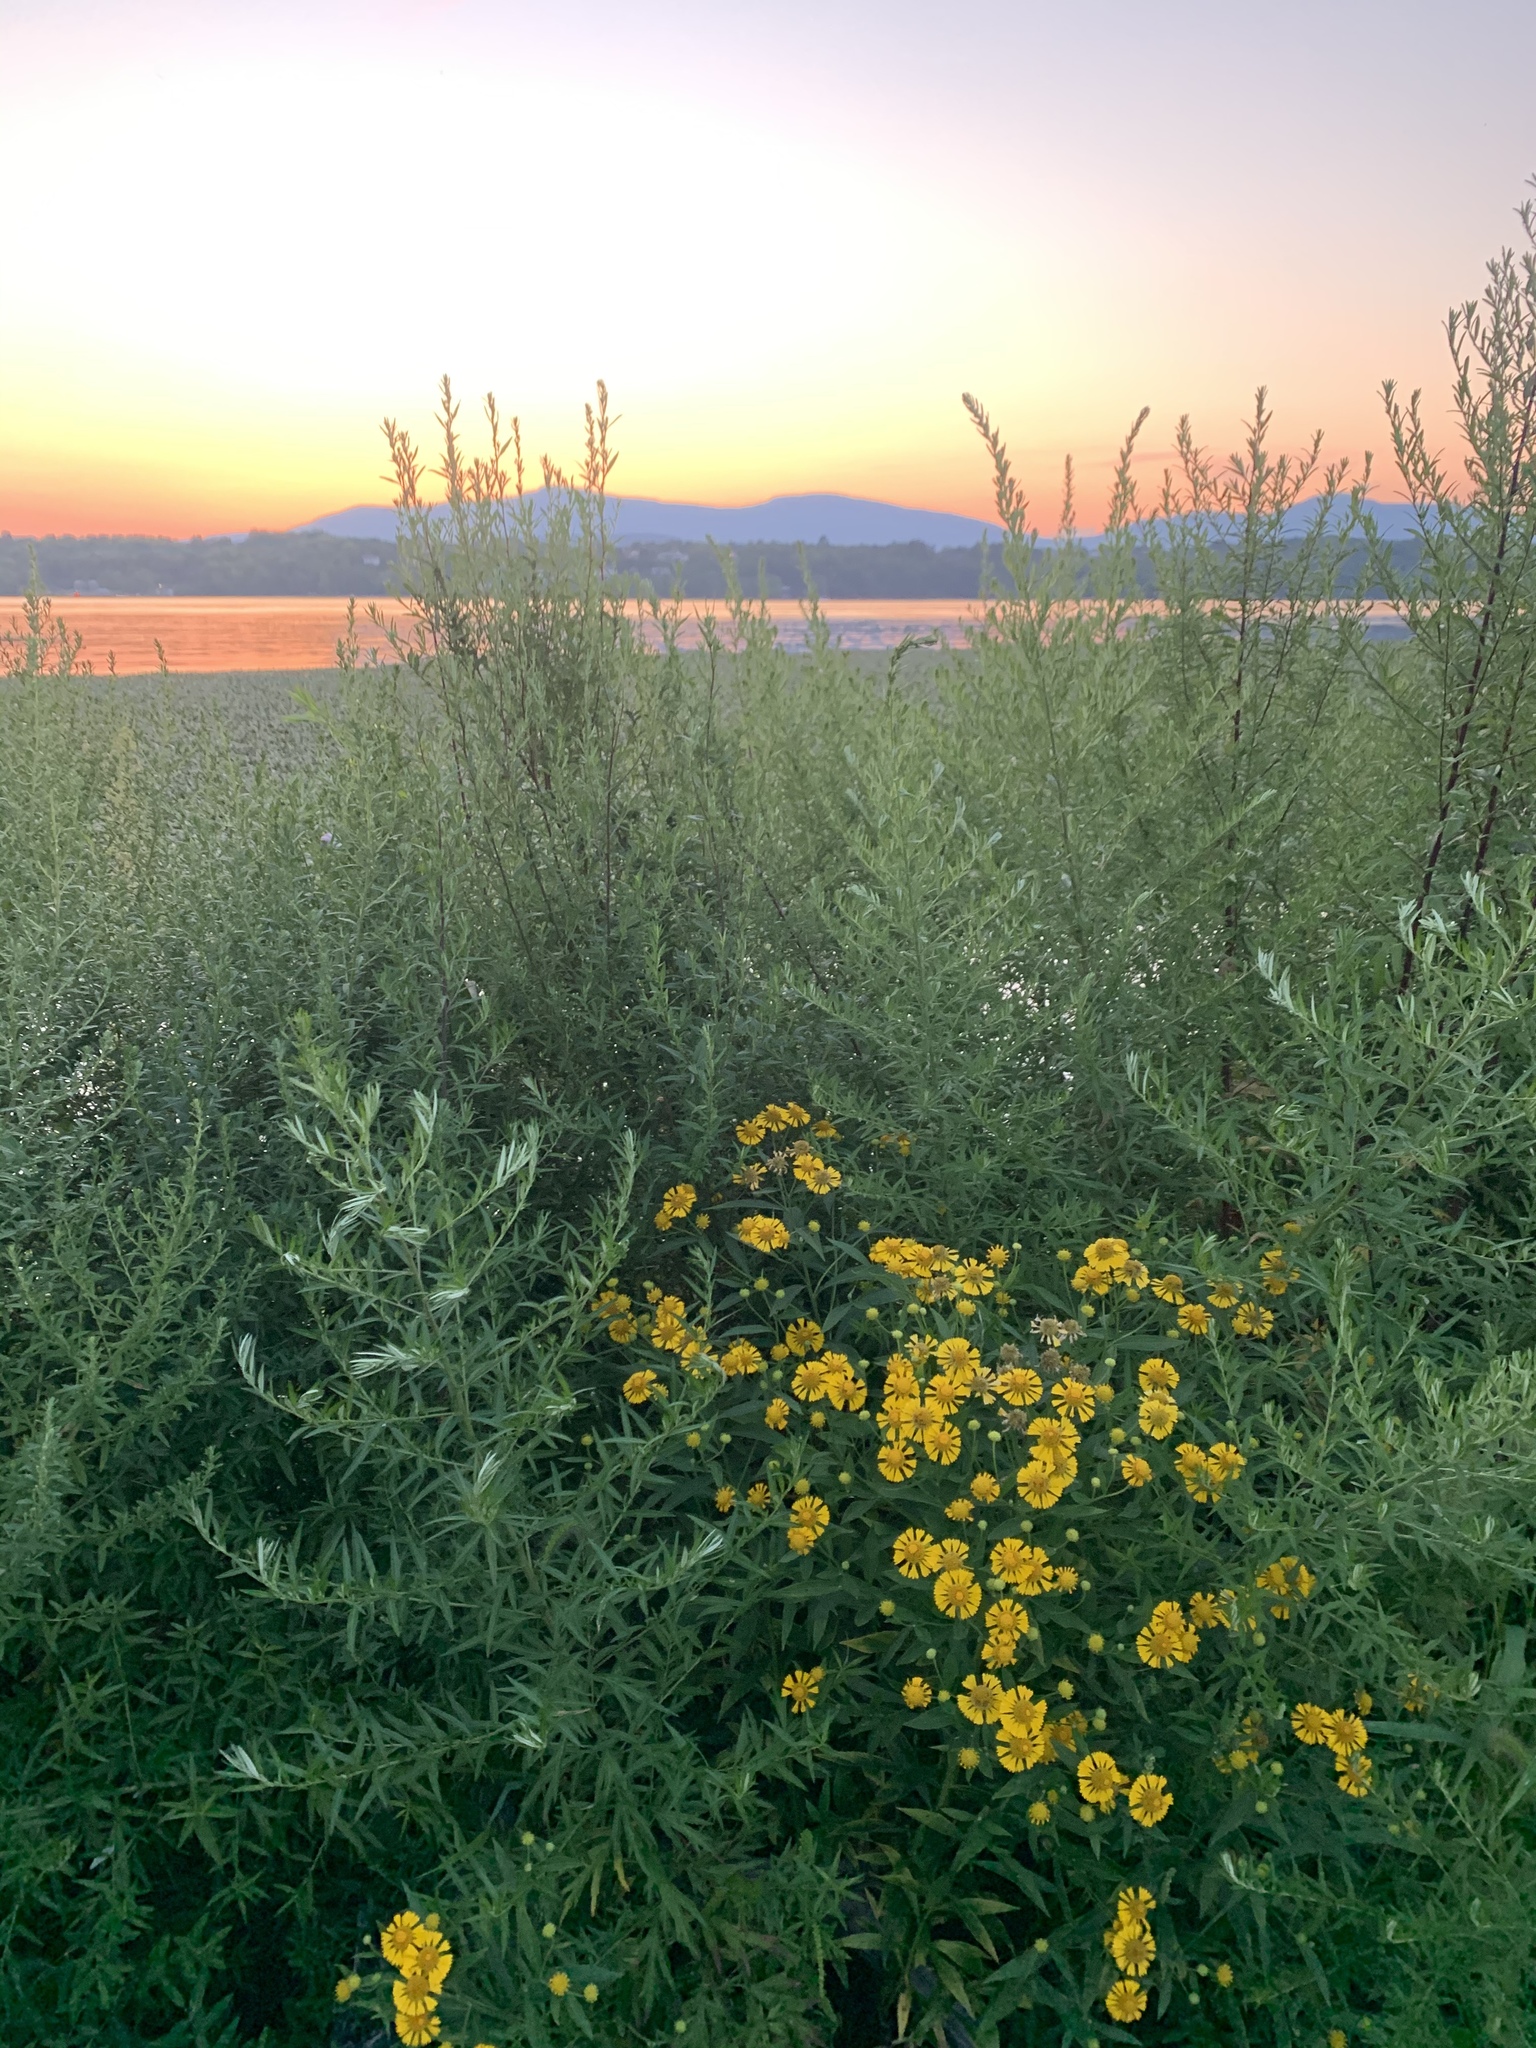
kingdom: Plantae
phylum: Tracheophyta
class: Magnoliopsida
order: Asterales
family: Asteraceae
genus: Helenium
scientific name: Helenium autumnale
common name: Sneezeweed
